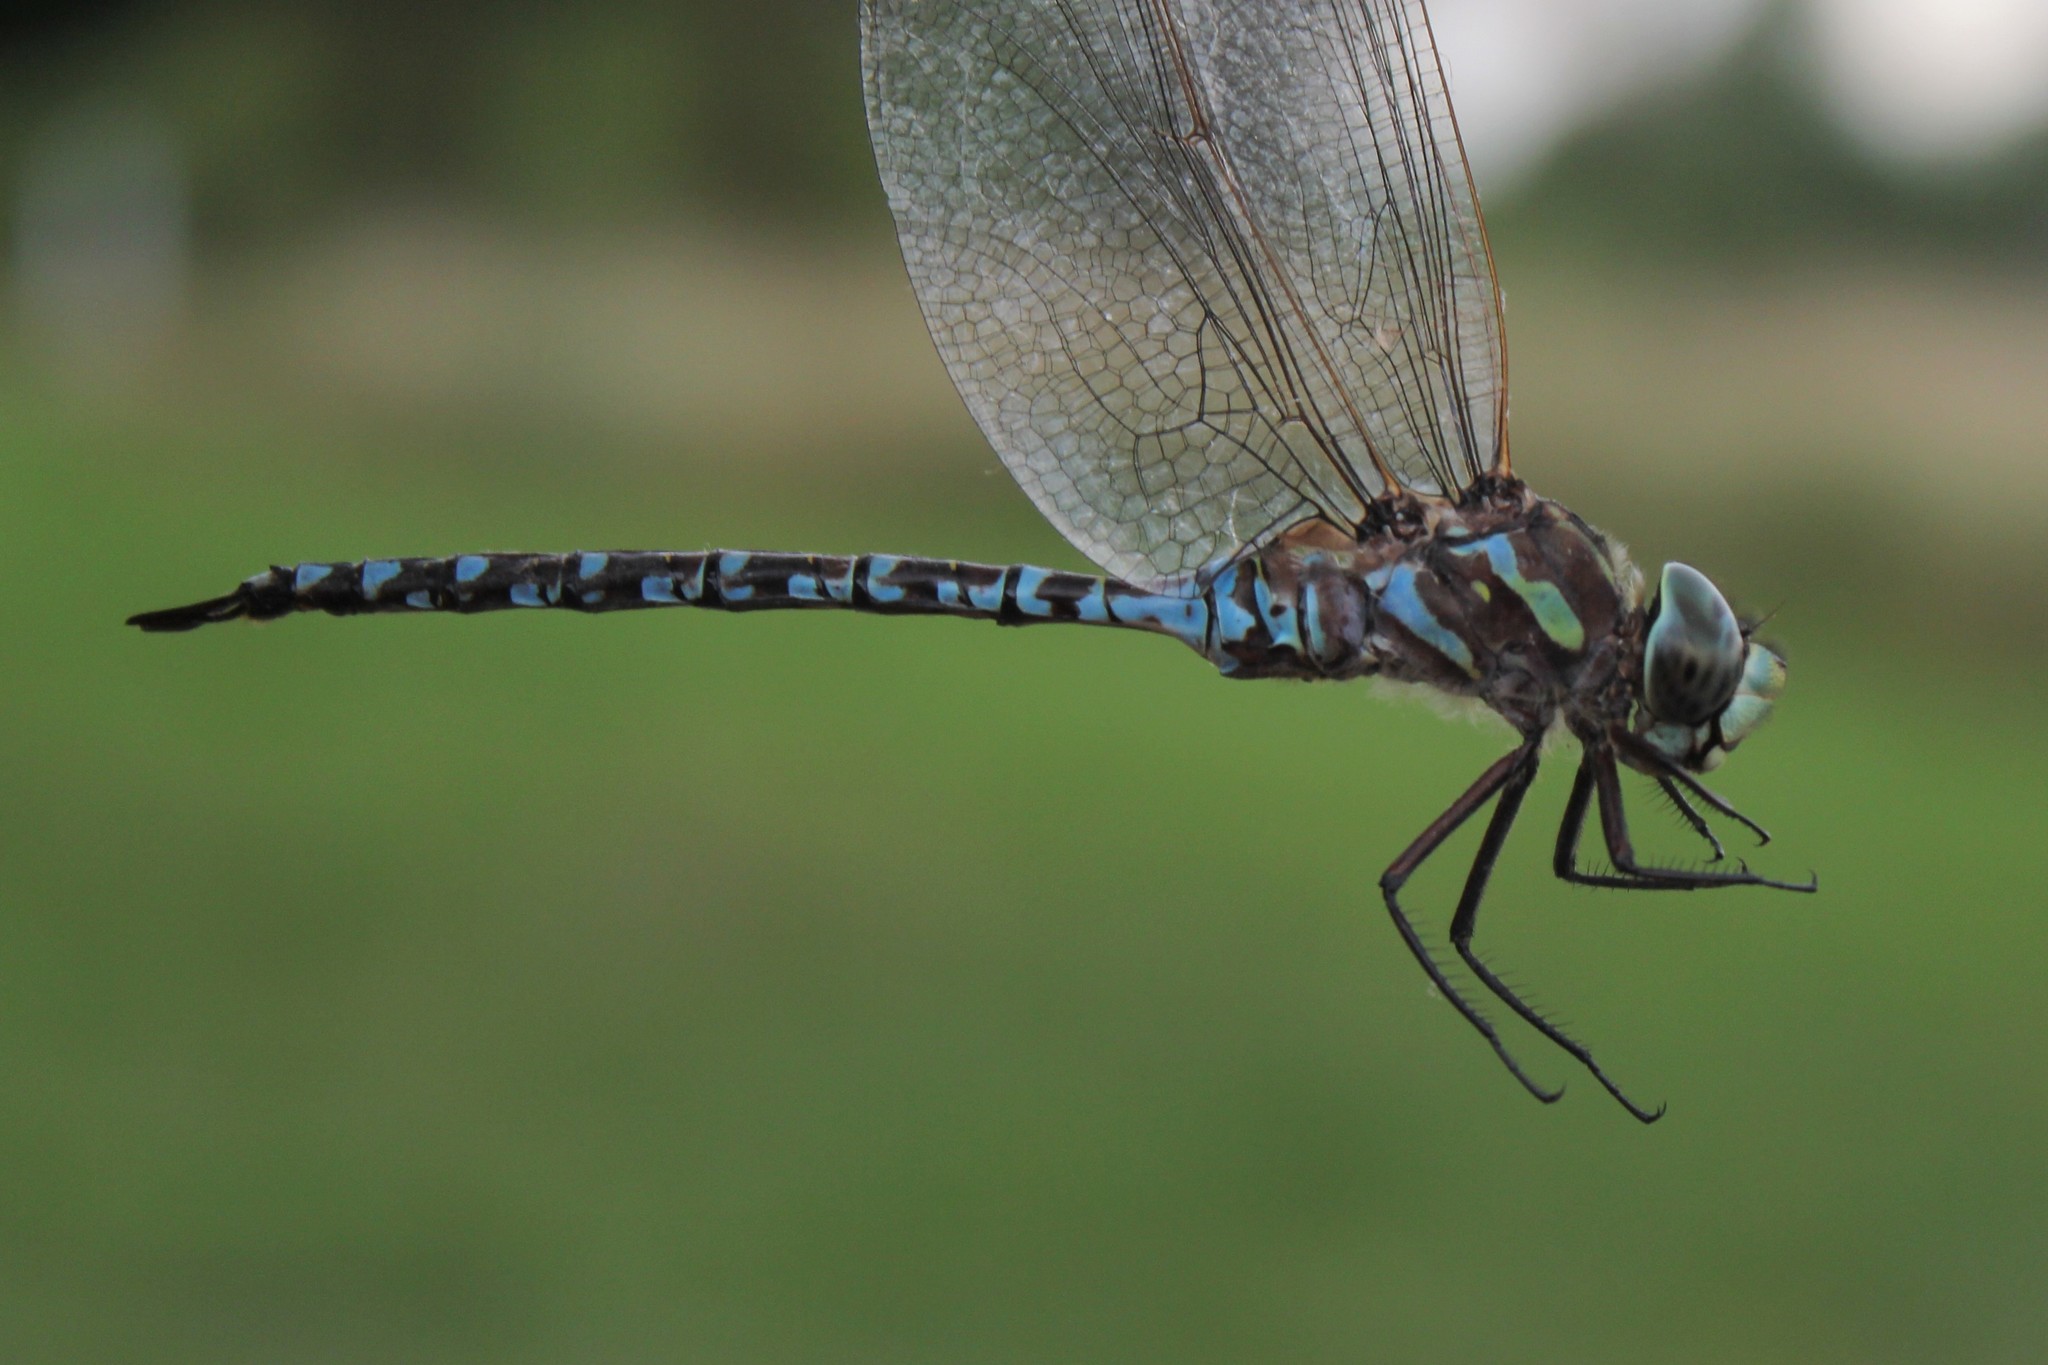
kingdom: Animalia
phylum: Arthropoda
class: Insecta
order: Odonata
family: Aeshnidae
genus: Aeshna
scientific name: Aeshna canadensis
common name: Canada darner
